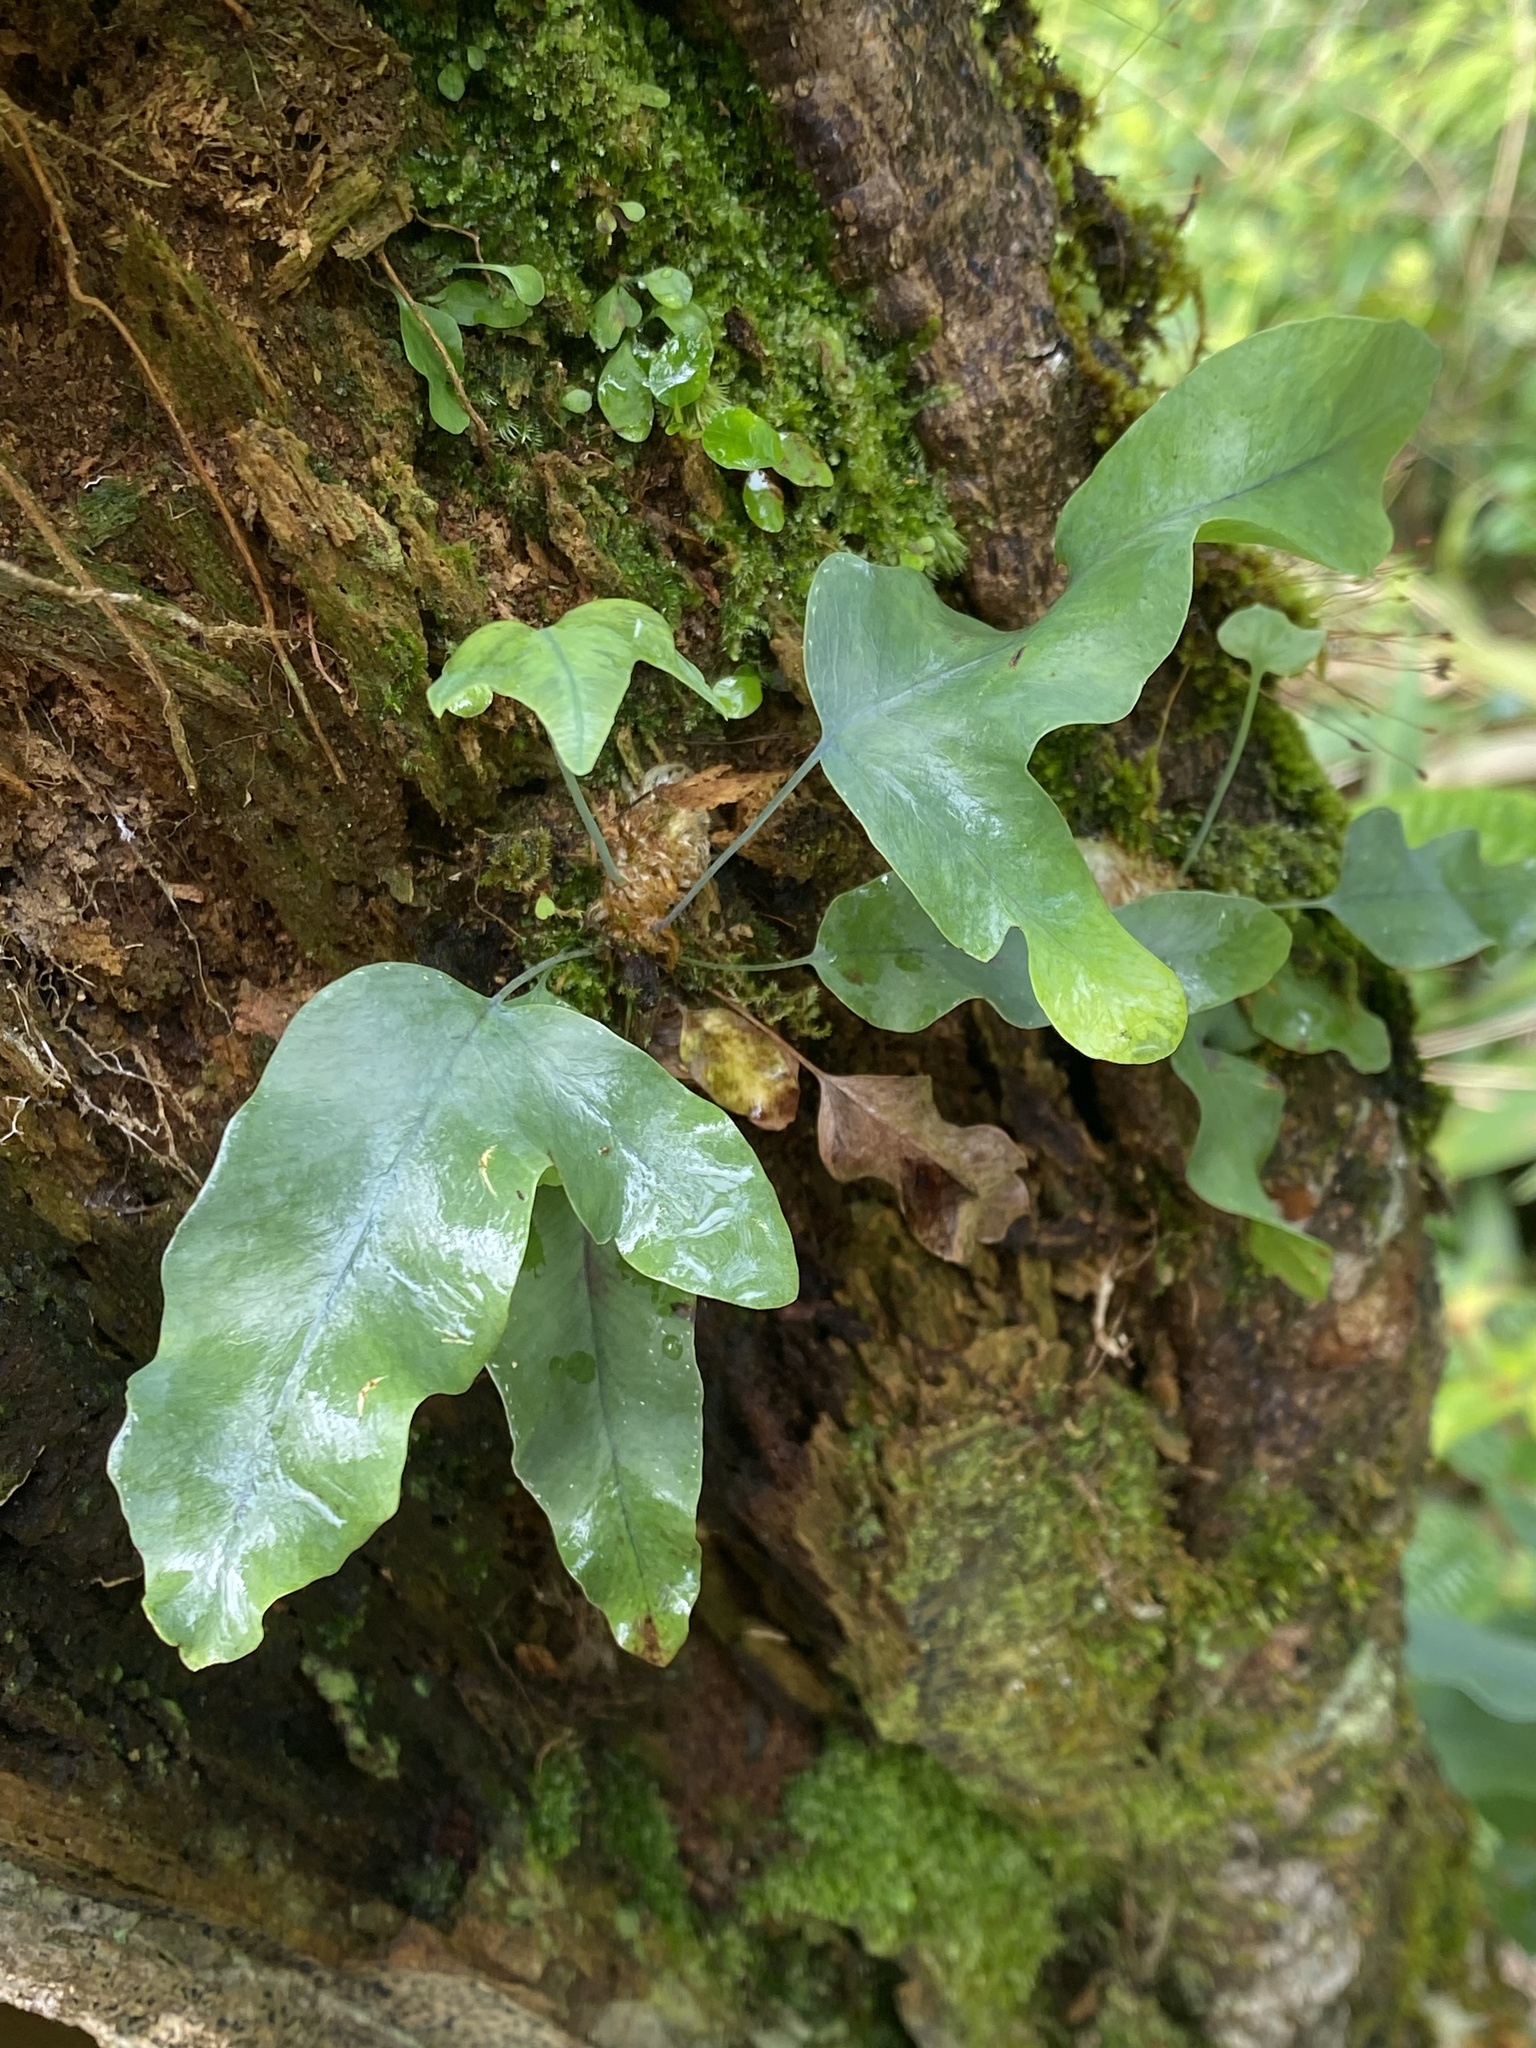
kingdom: Plantae
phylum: Tracheophyta
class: Polypodiopsida
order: Polypodiales
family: Polypodiaceae
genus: Phlebodium
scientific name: Phlebodium aureum
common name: Gold-foot fern
